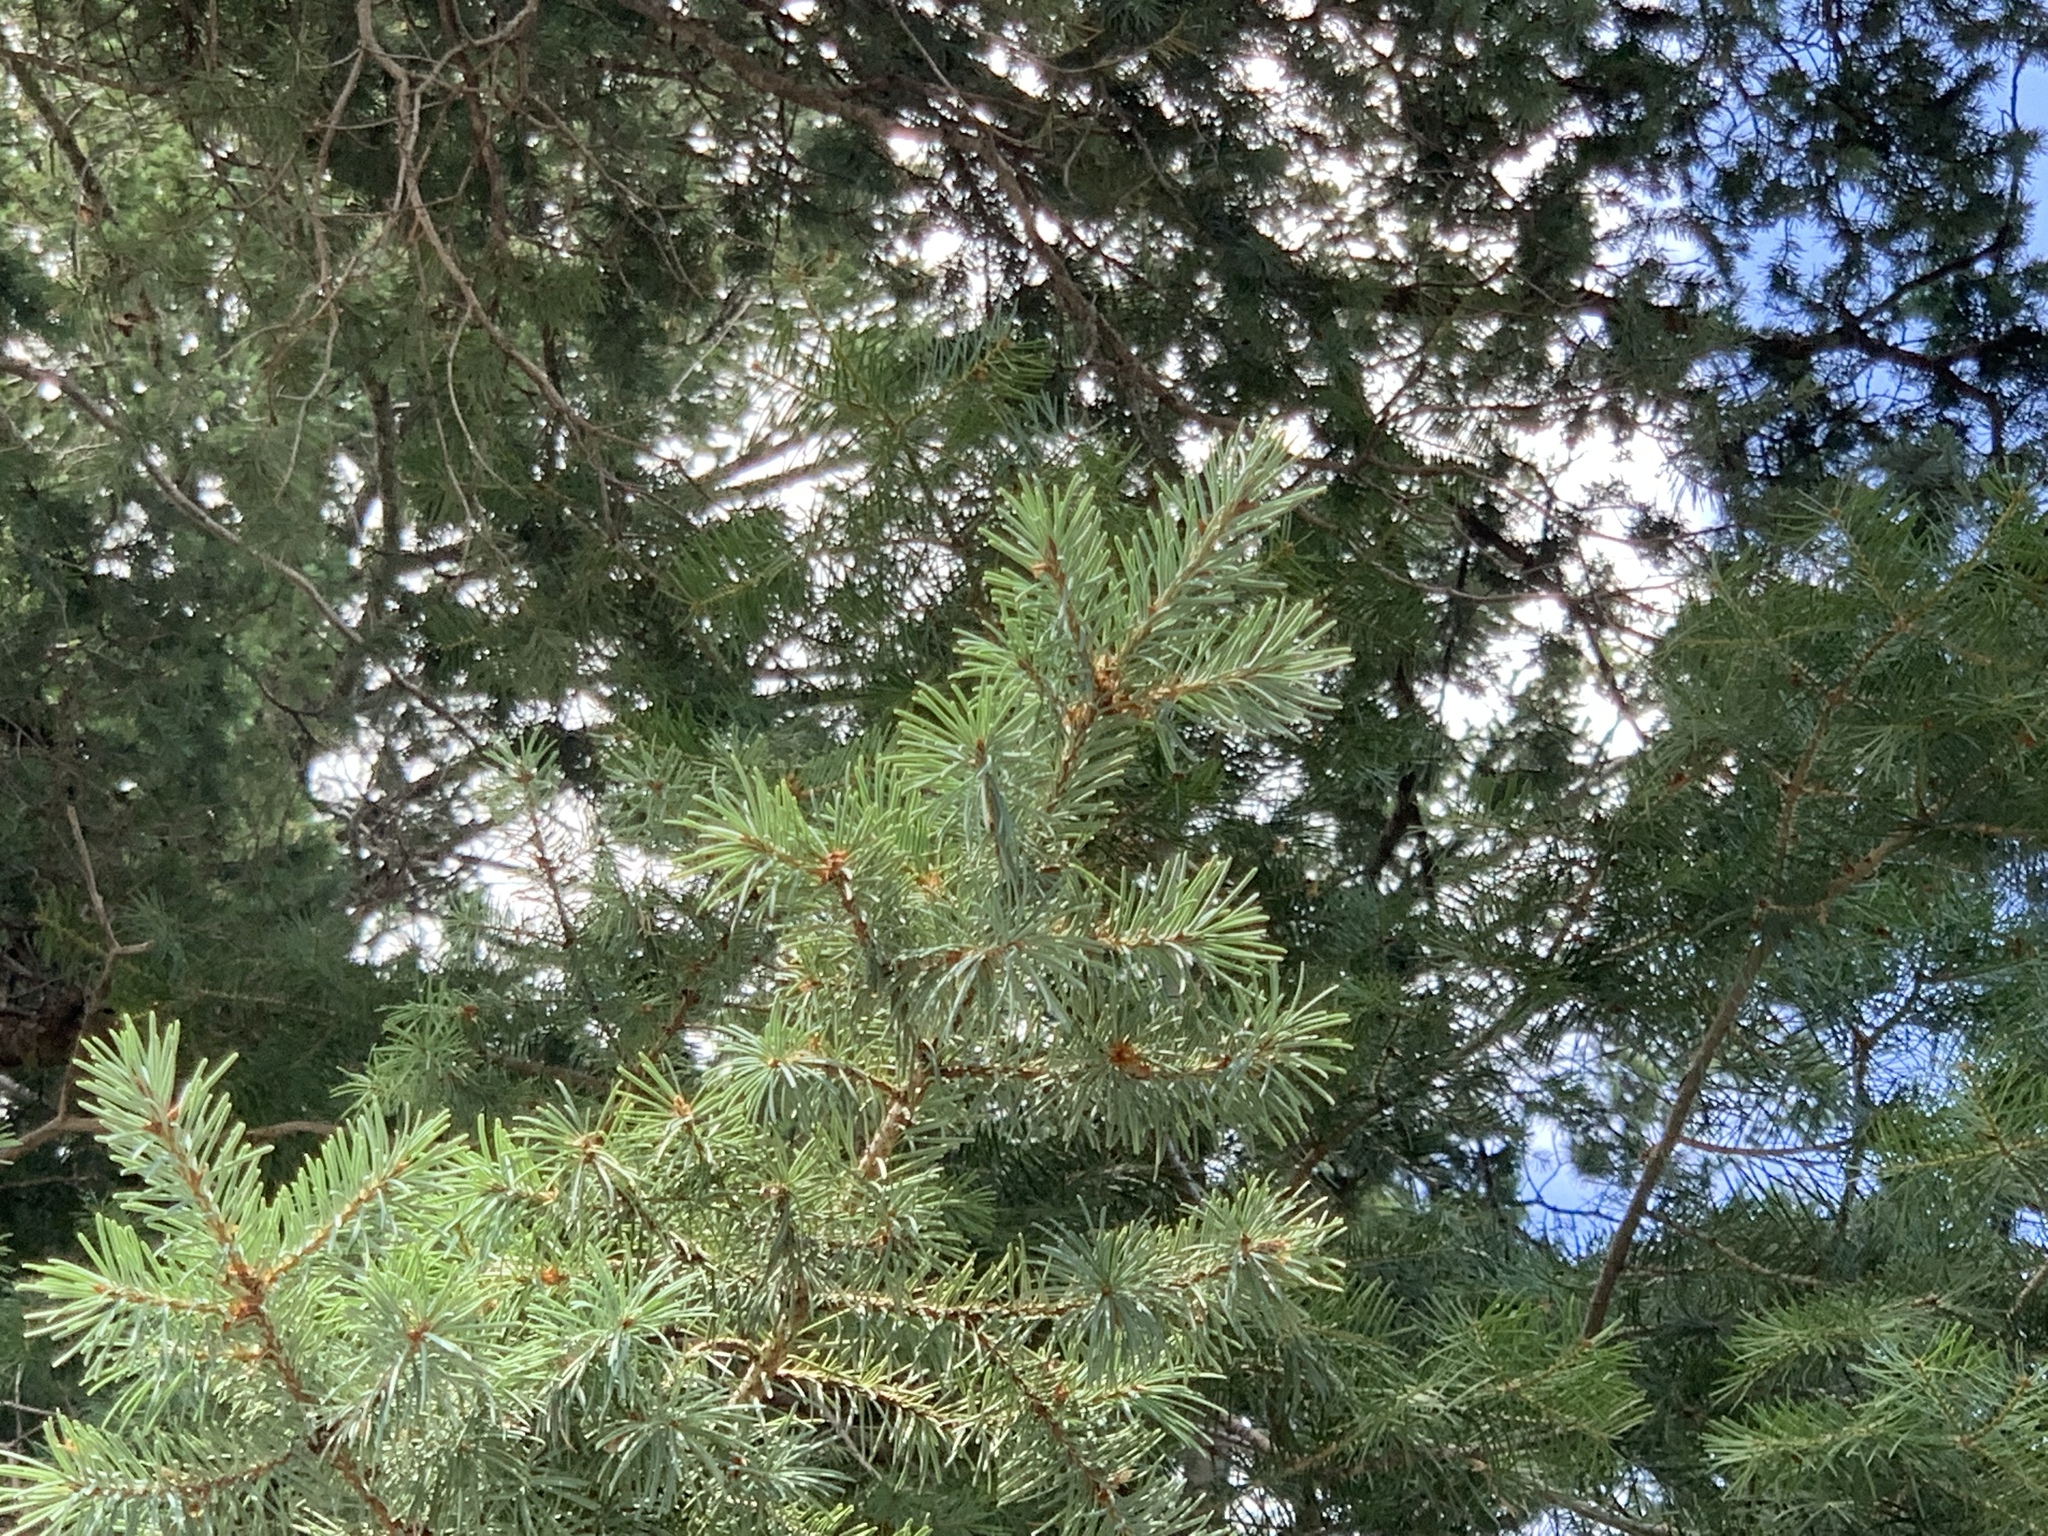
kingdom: Plantae
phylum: Tracheophyta
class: Pinopsida
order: Pinales
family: Pinaceae
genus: Pseudotsuga
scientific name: Pseudotsuga menziesii
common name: Douglas fir
